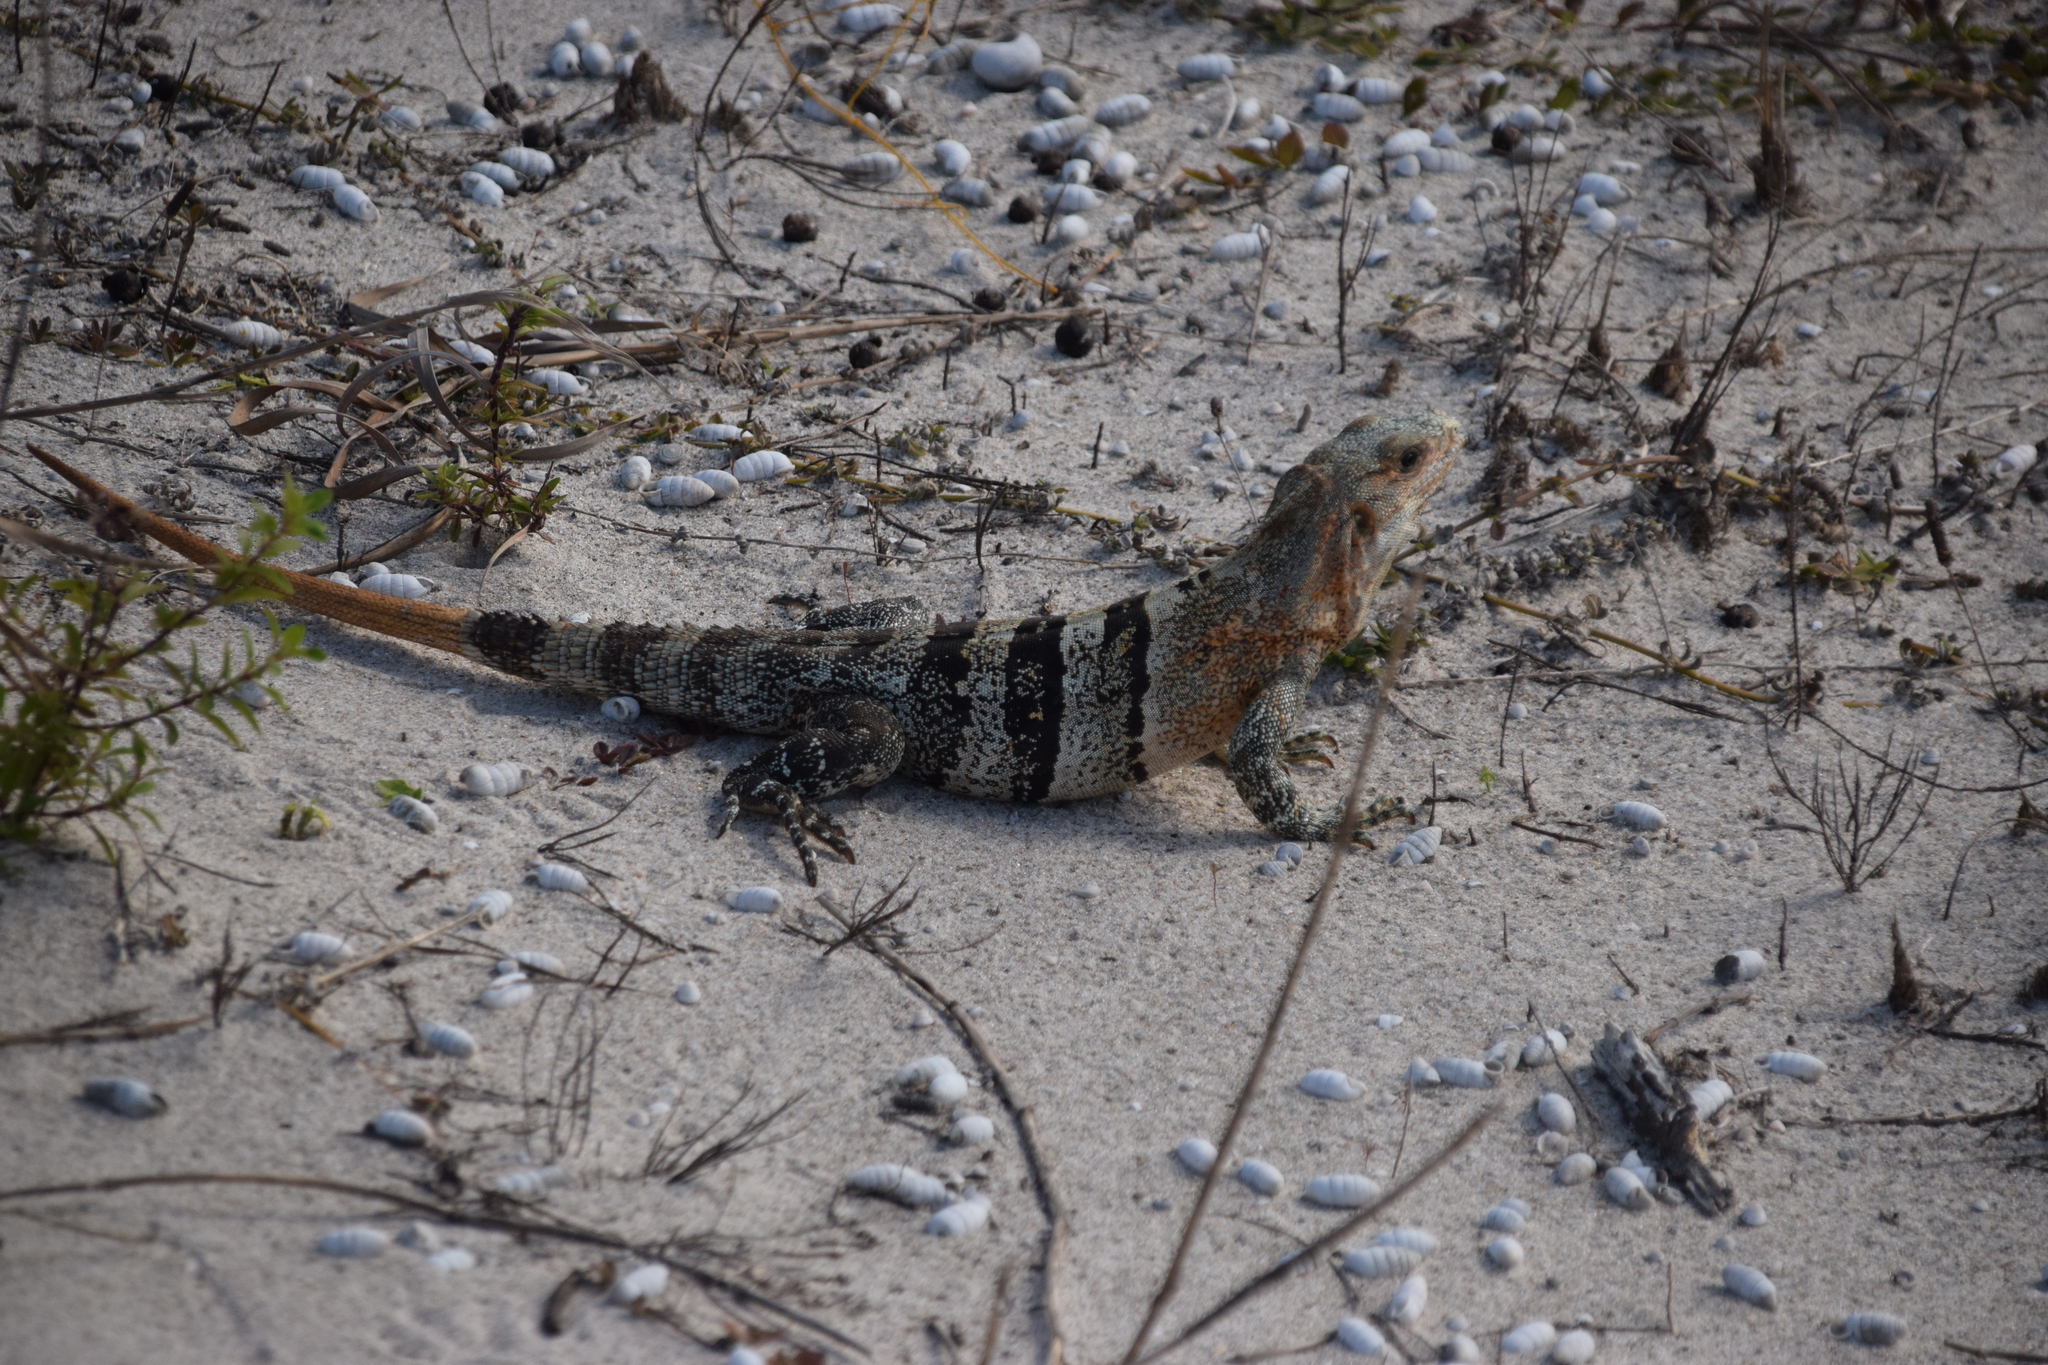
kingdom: Animalia
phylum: Chordata
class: Squamata
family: Iguanidae
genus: Ctenosaura
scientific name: Ctenosaura similis
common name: Black spiny-tailed iguana
